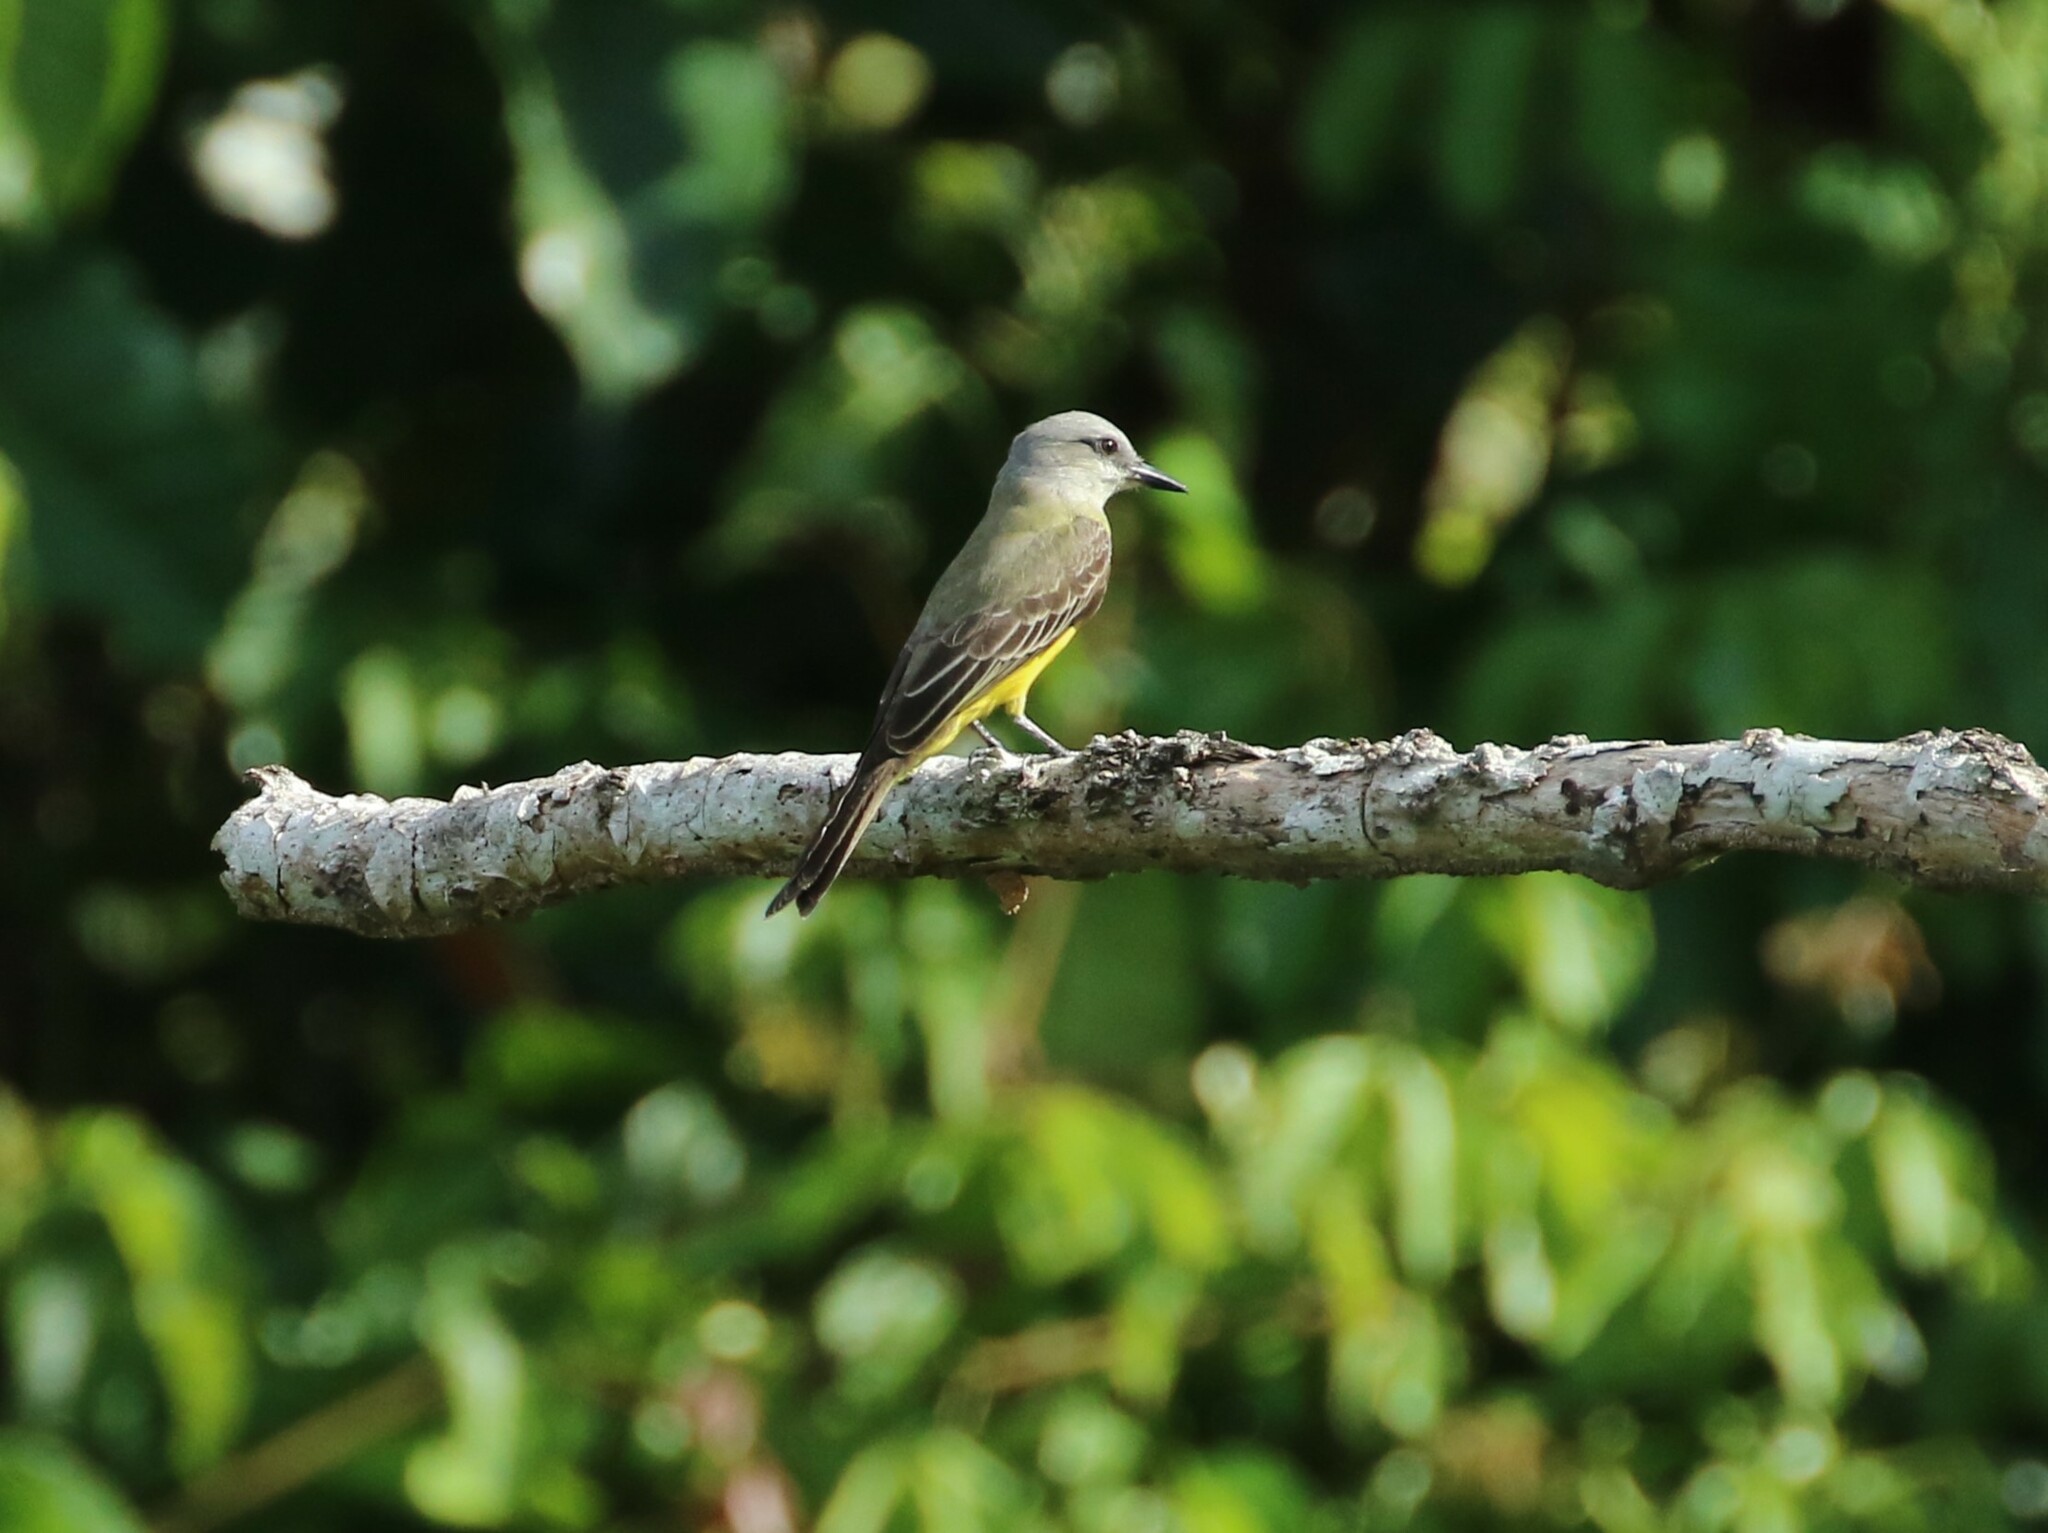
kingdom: Animalia
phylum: Chordata
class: Aves
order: Passeriformes
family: Tyrannidae
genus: Tyrannus
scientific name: Tyrannus melancholicus
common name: Tropical kingbird
